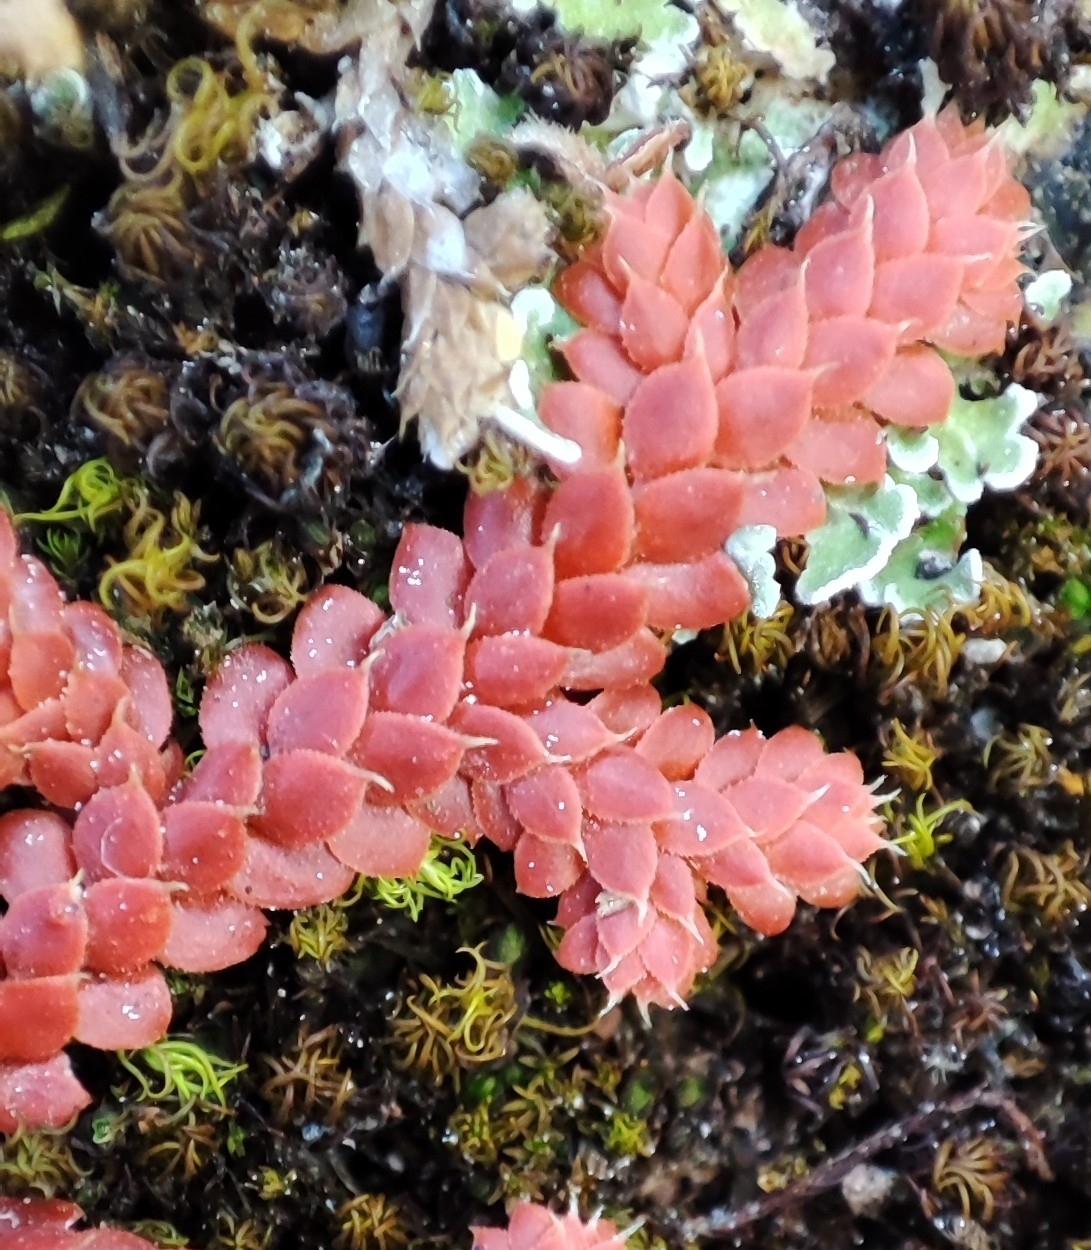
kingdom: Plantae
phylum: Tracheophyta
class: Lycopodiopsida
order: Selaginellales
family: Selaginellaceae
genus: Selaginella
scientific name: Selaginella denticulata
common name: Toothed-leaved clubmoss
